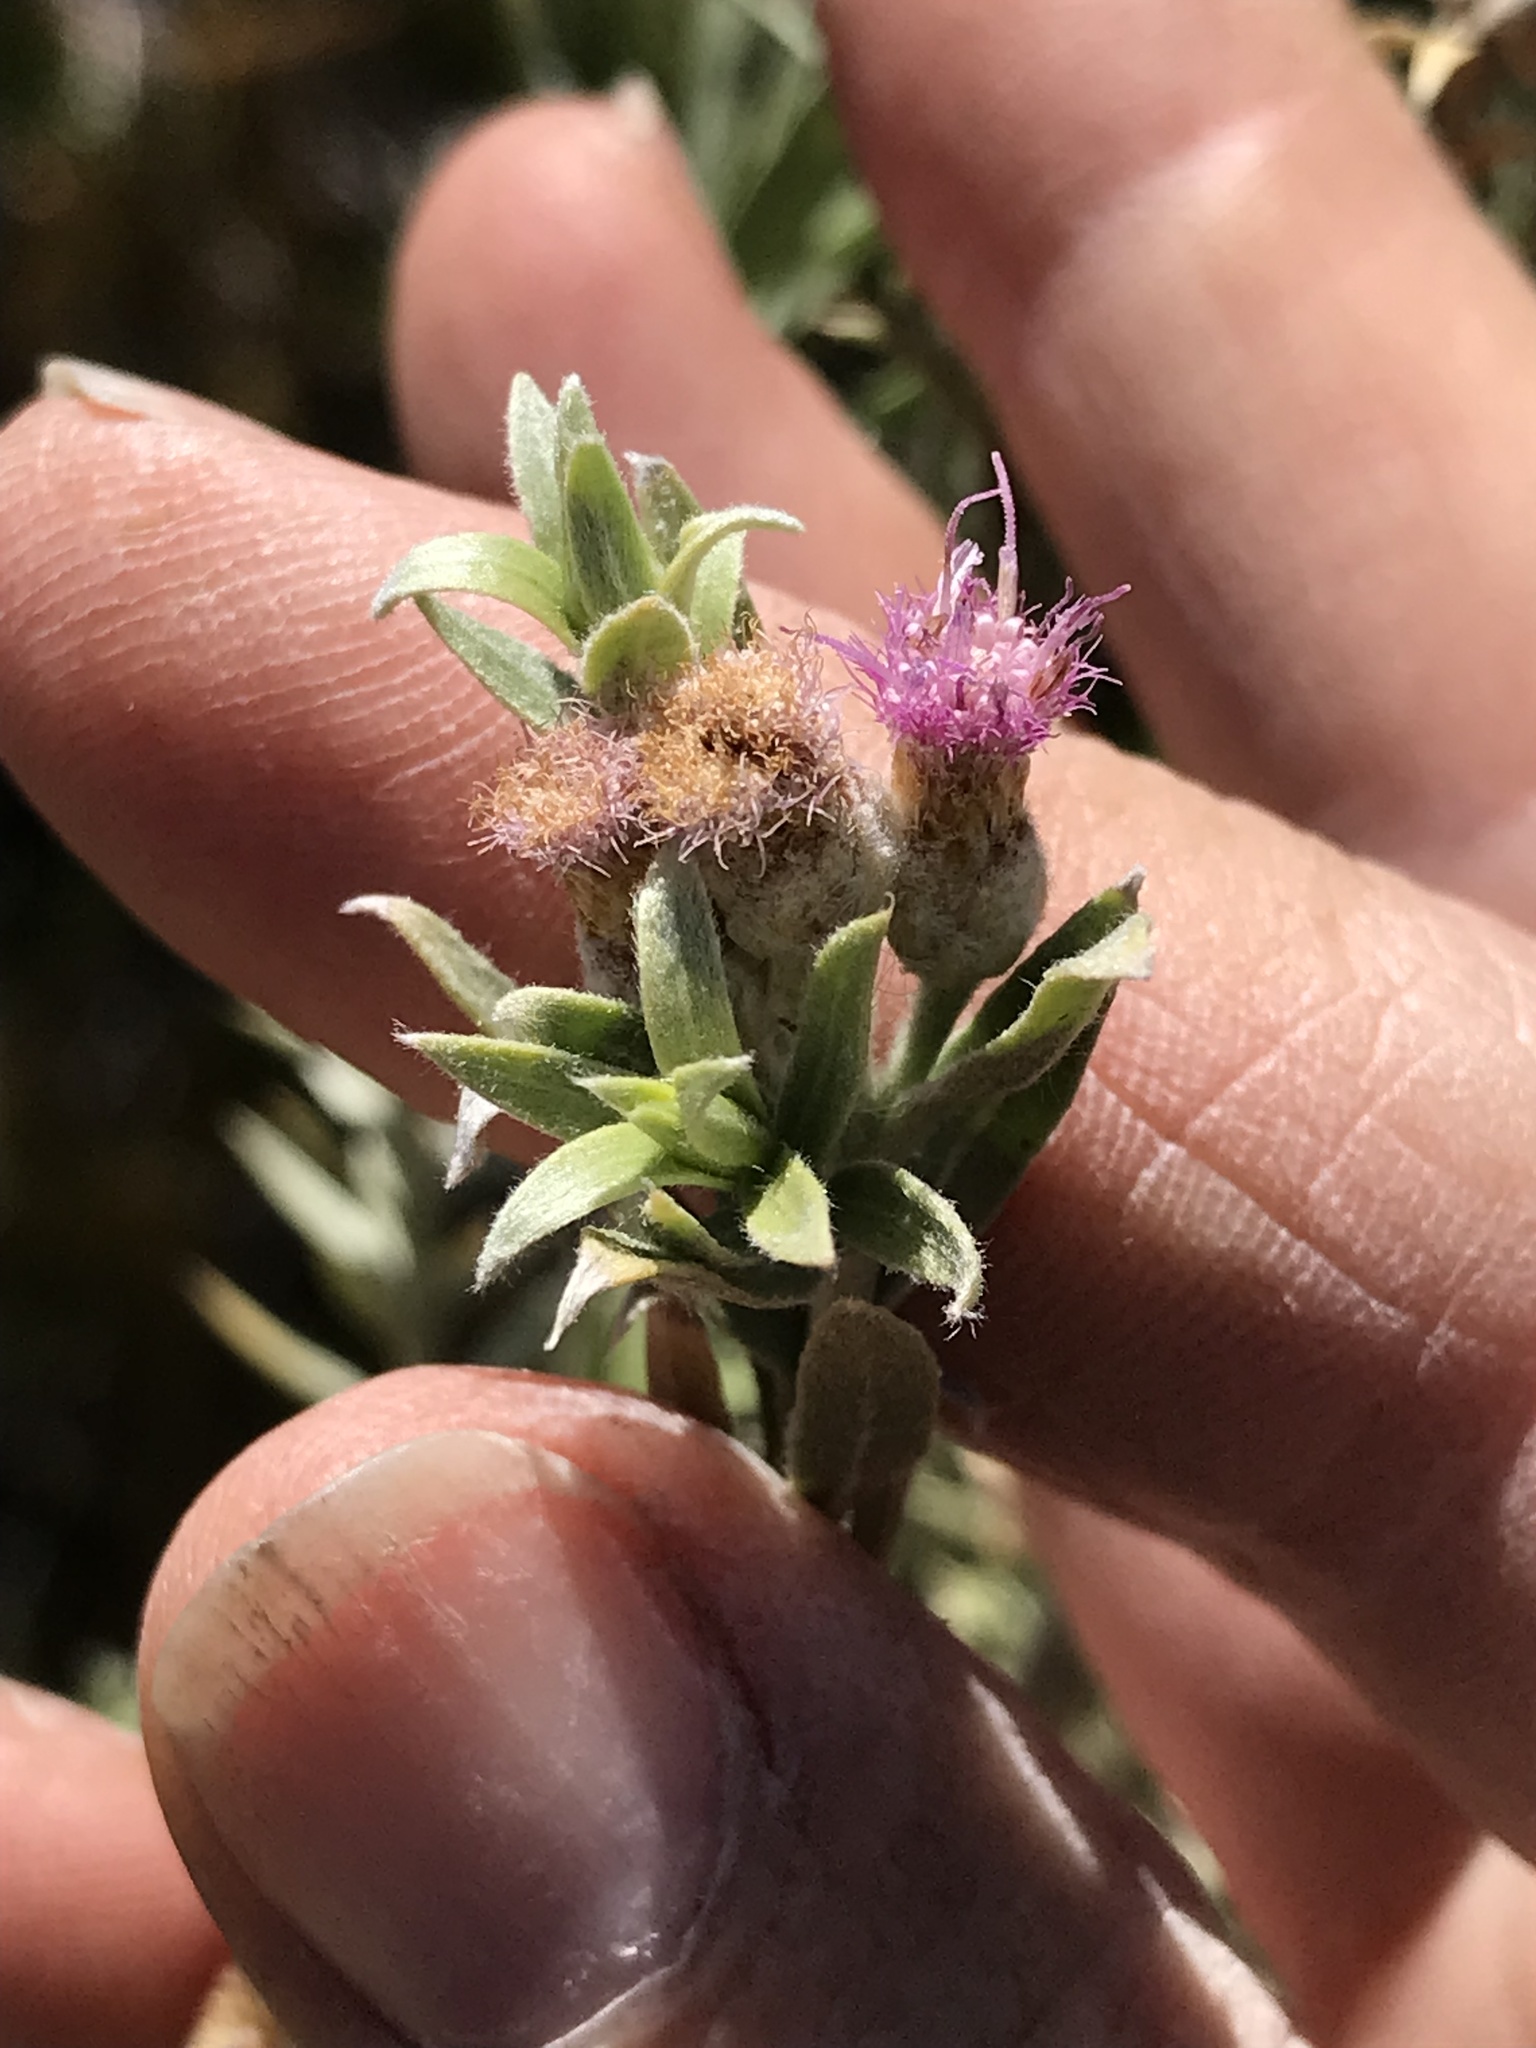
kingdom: Plantae
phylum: Tracheophyta
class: Magnoliopsida
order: Asterales
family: Asteraceae
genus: Pluchea
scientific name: Pluchea sericea
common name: Arrow-weed
